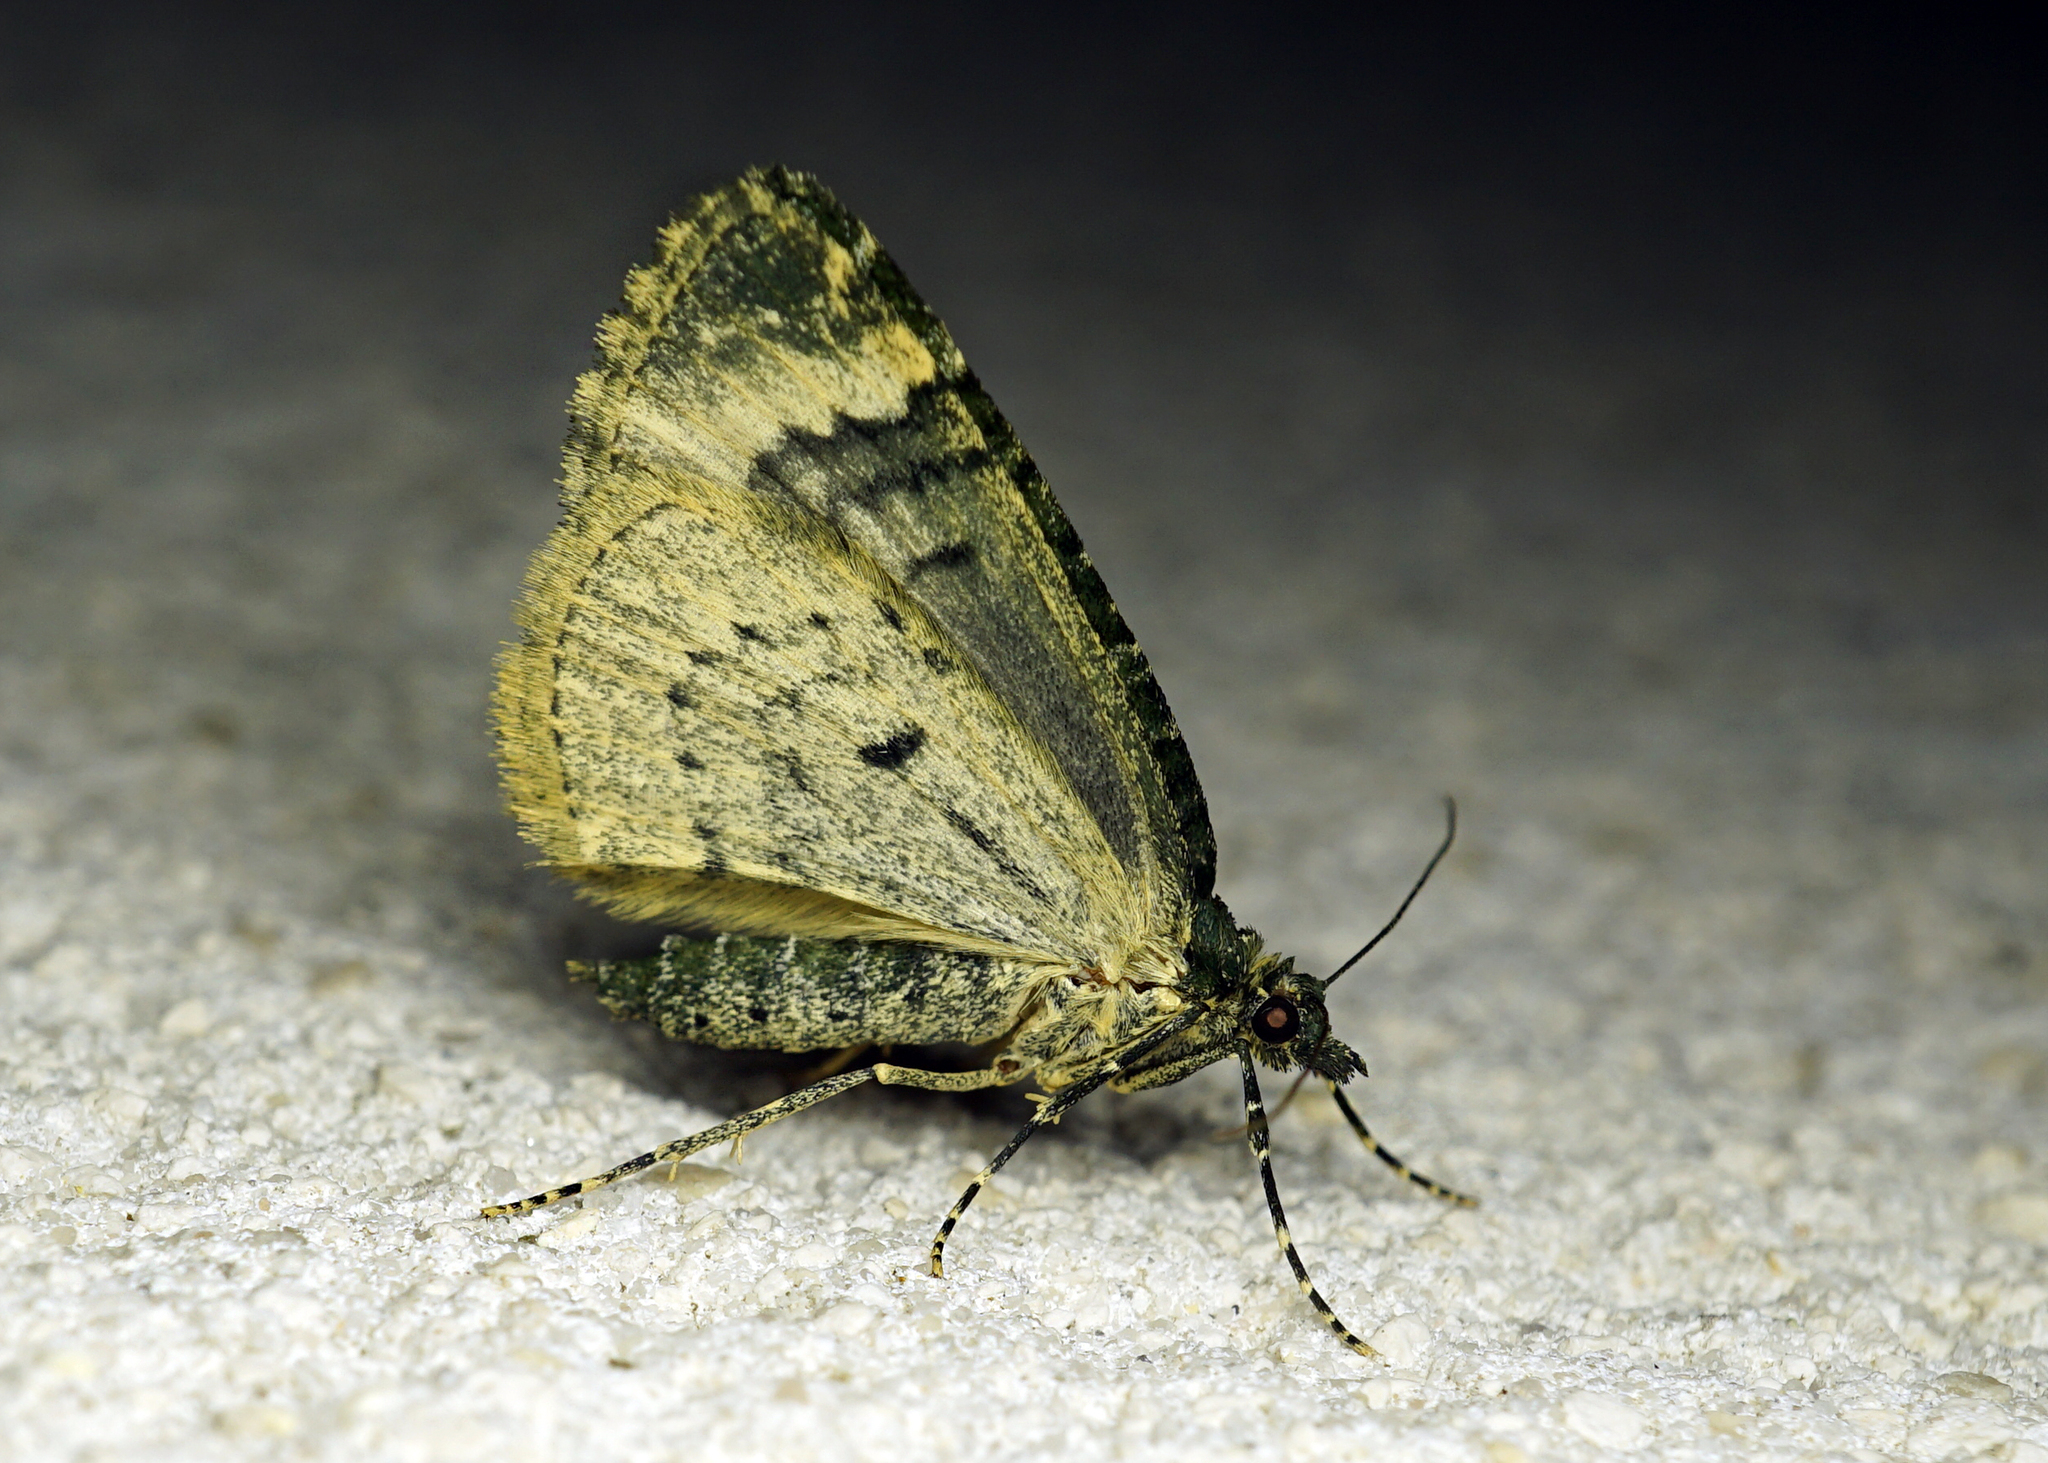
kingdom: Animalia
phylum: Arthropoda
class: Insecta
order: Lepidoptera
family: Geometridae
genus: Chloroclysta
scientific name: Chloroclysta siterata
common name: Red-green carpet
